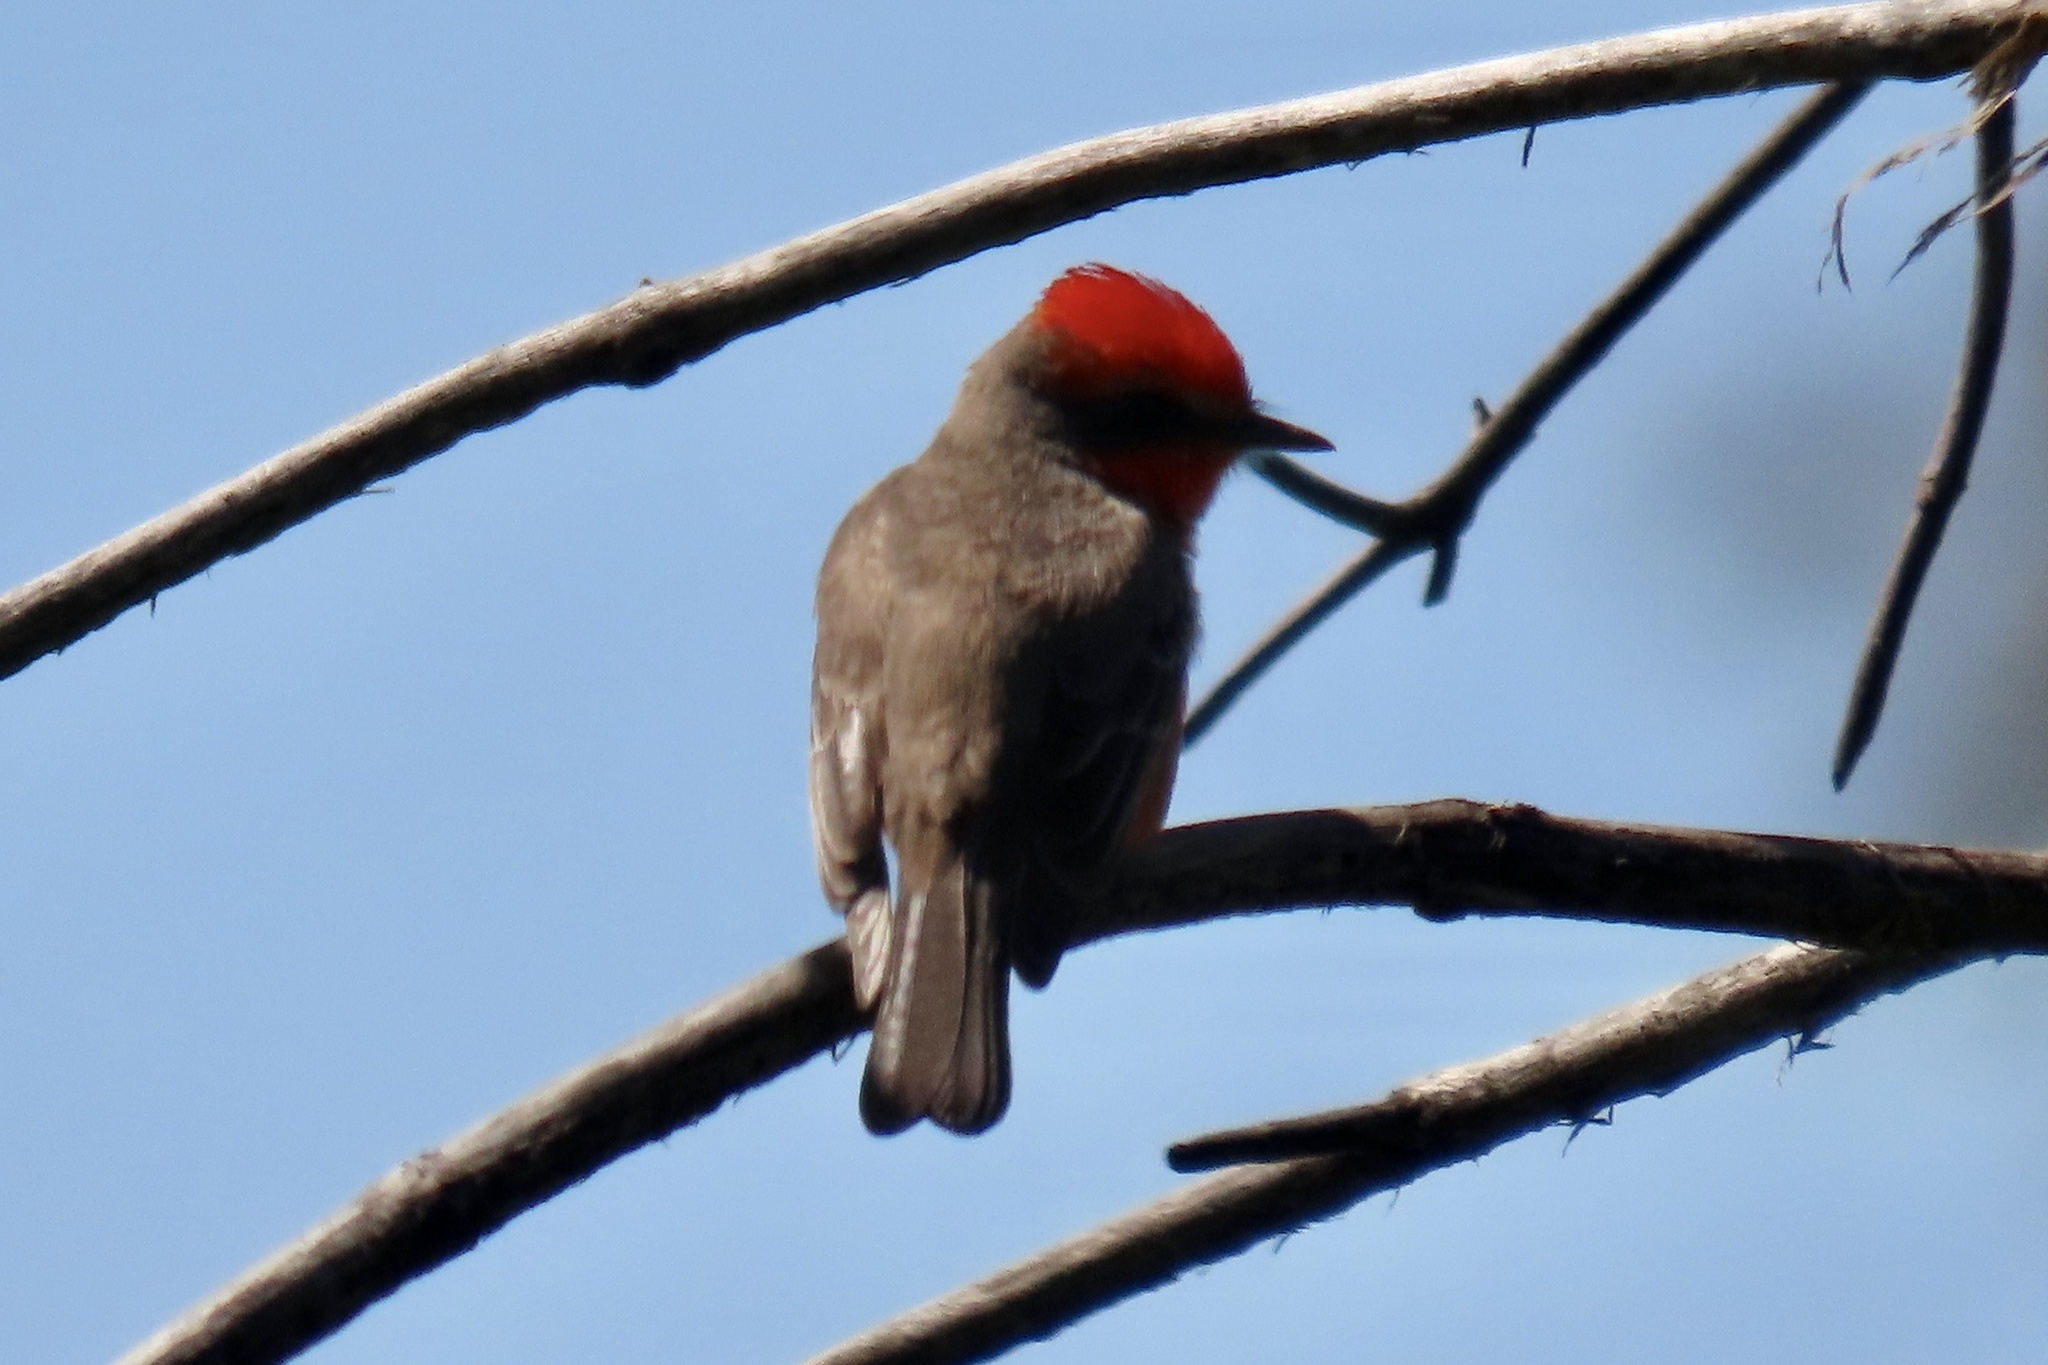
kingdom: Animalia
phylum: Chordata
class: Aves
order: Passeriformes
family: Tyrannidae
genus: Pyrocephalus
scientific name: Pyrocephalus rubinus
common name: Vermilion flycatcher
